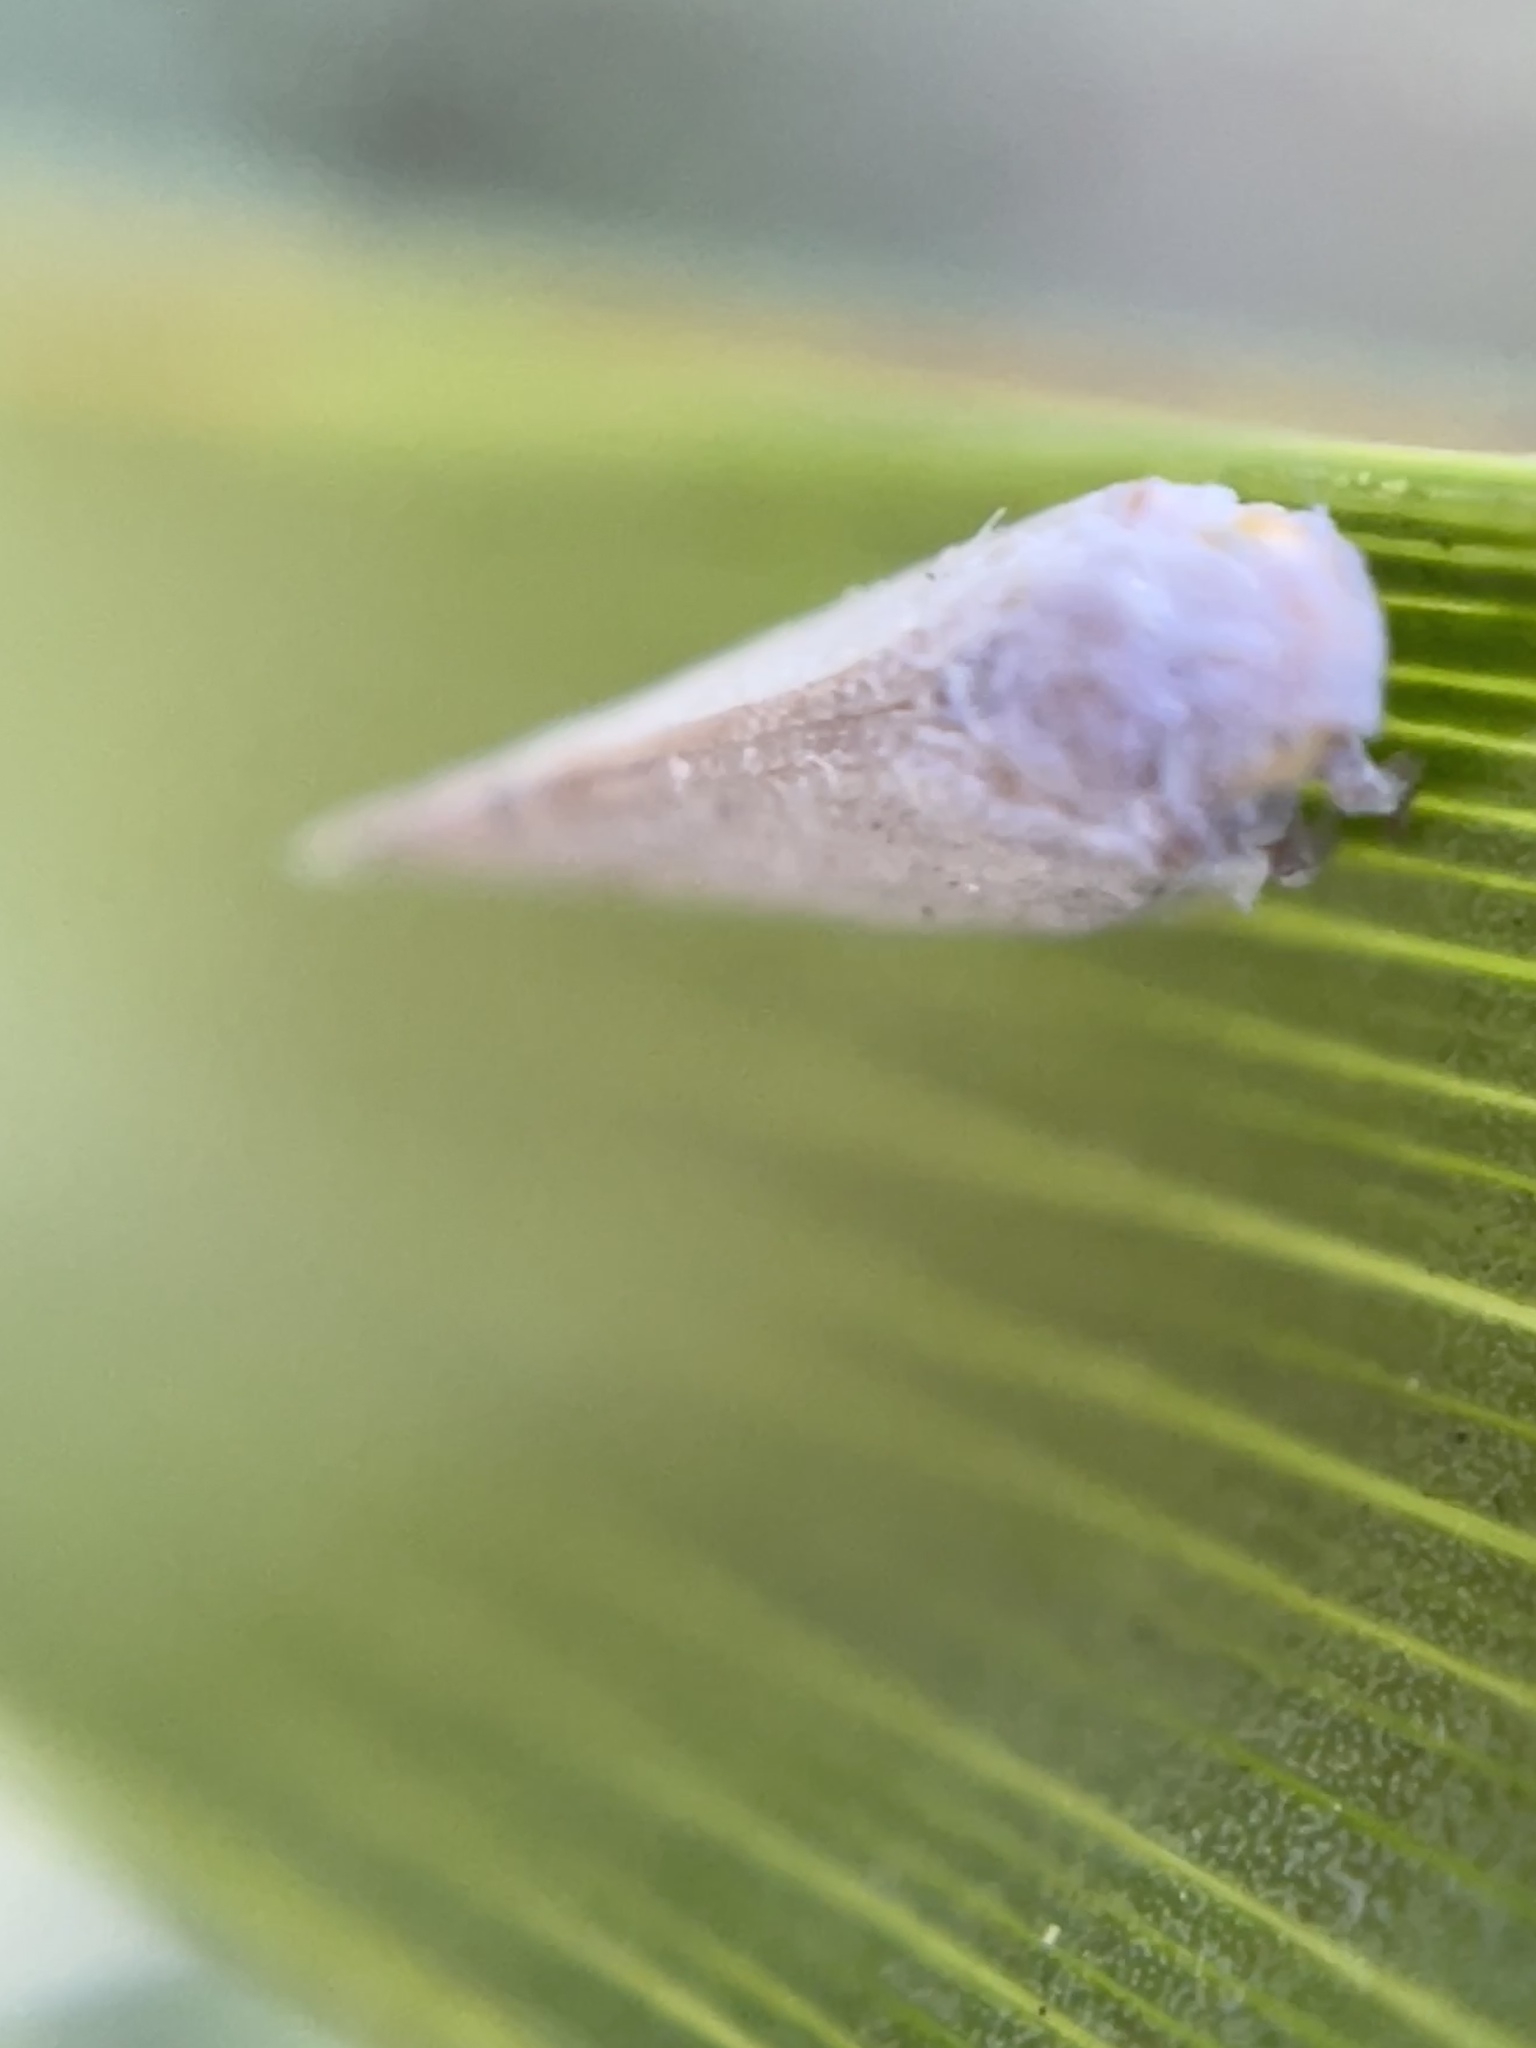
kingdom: Animalia
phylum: Arthropoda
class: Insecta
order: Hemiptera
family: Flatidae
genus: Anzora
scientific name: Anzora unicolor
